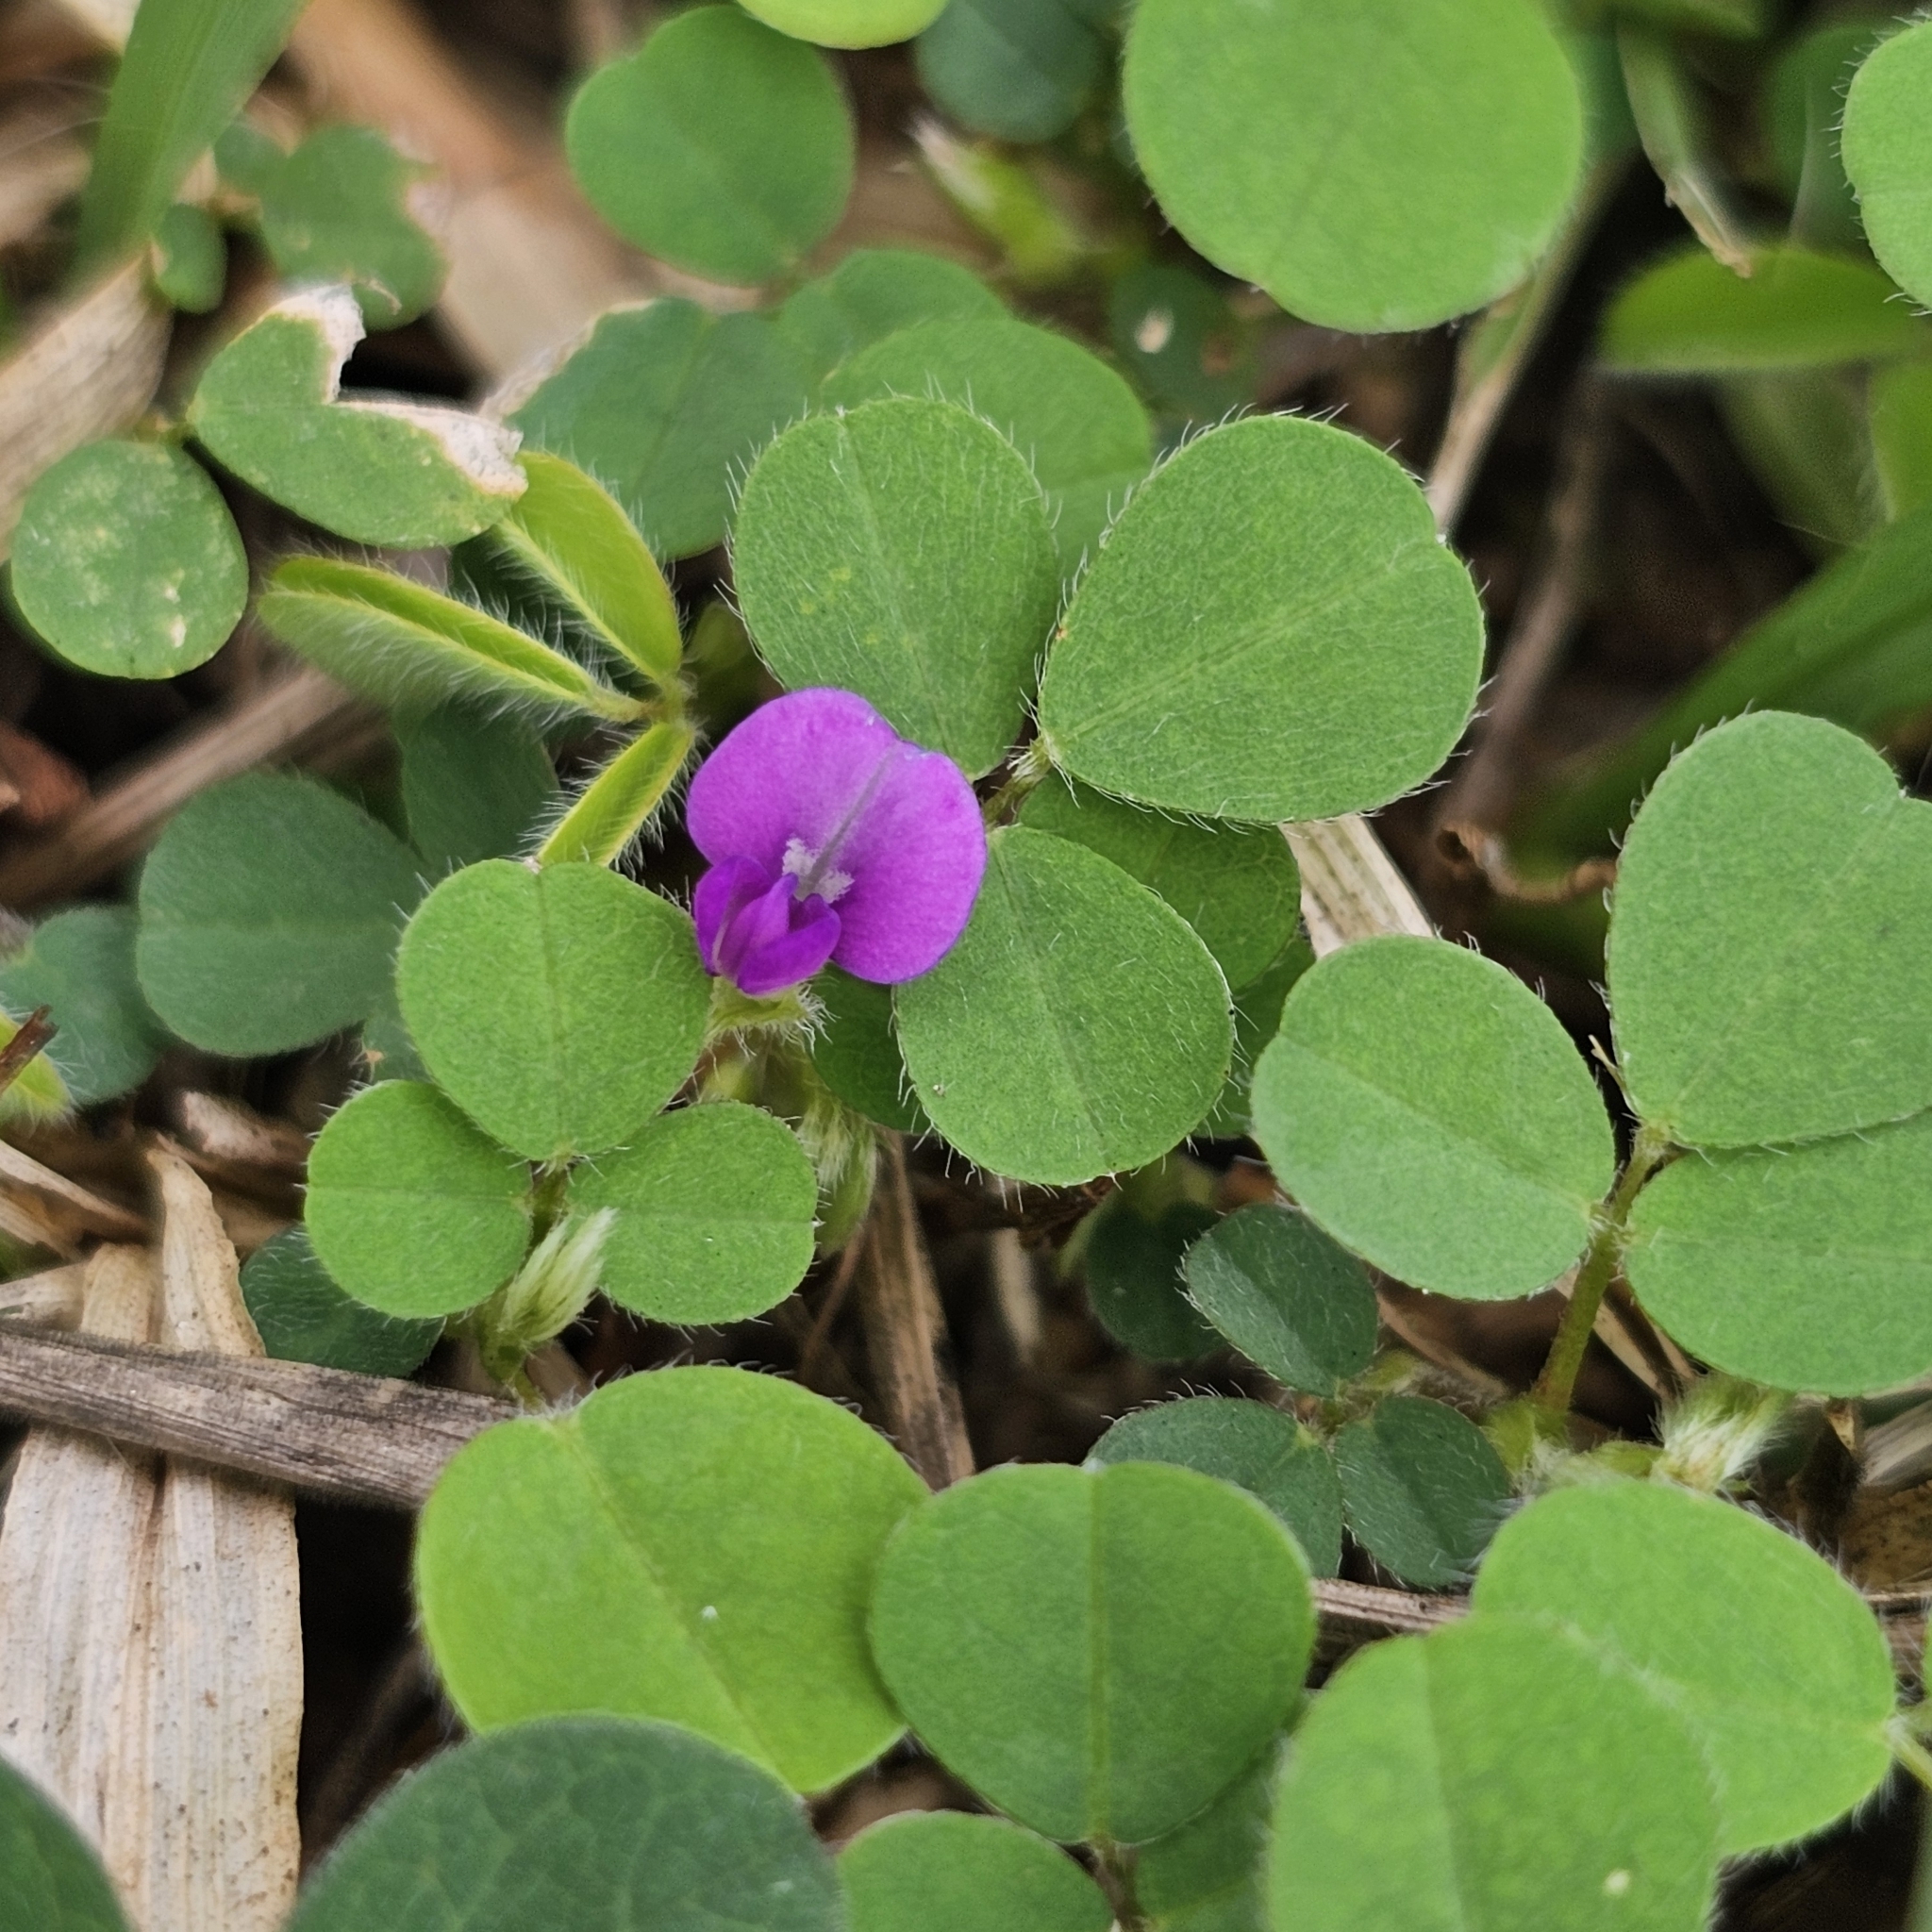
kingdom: Plantae
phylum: Tracheophyta
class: Magnoliopsida
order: Fabales
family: Fabaceae
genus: Grona
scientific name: Grona triflora
